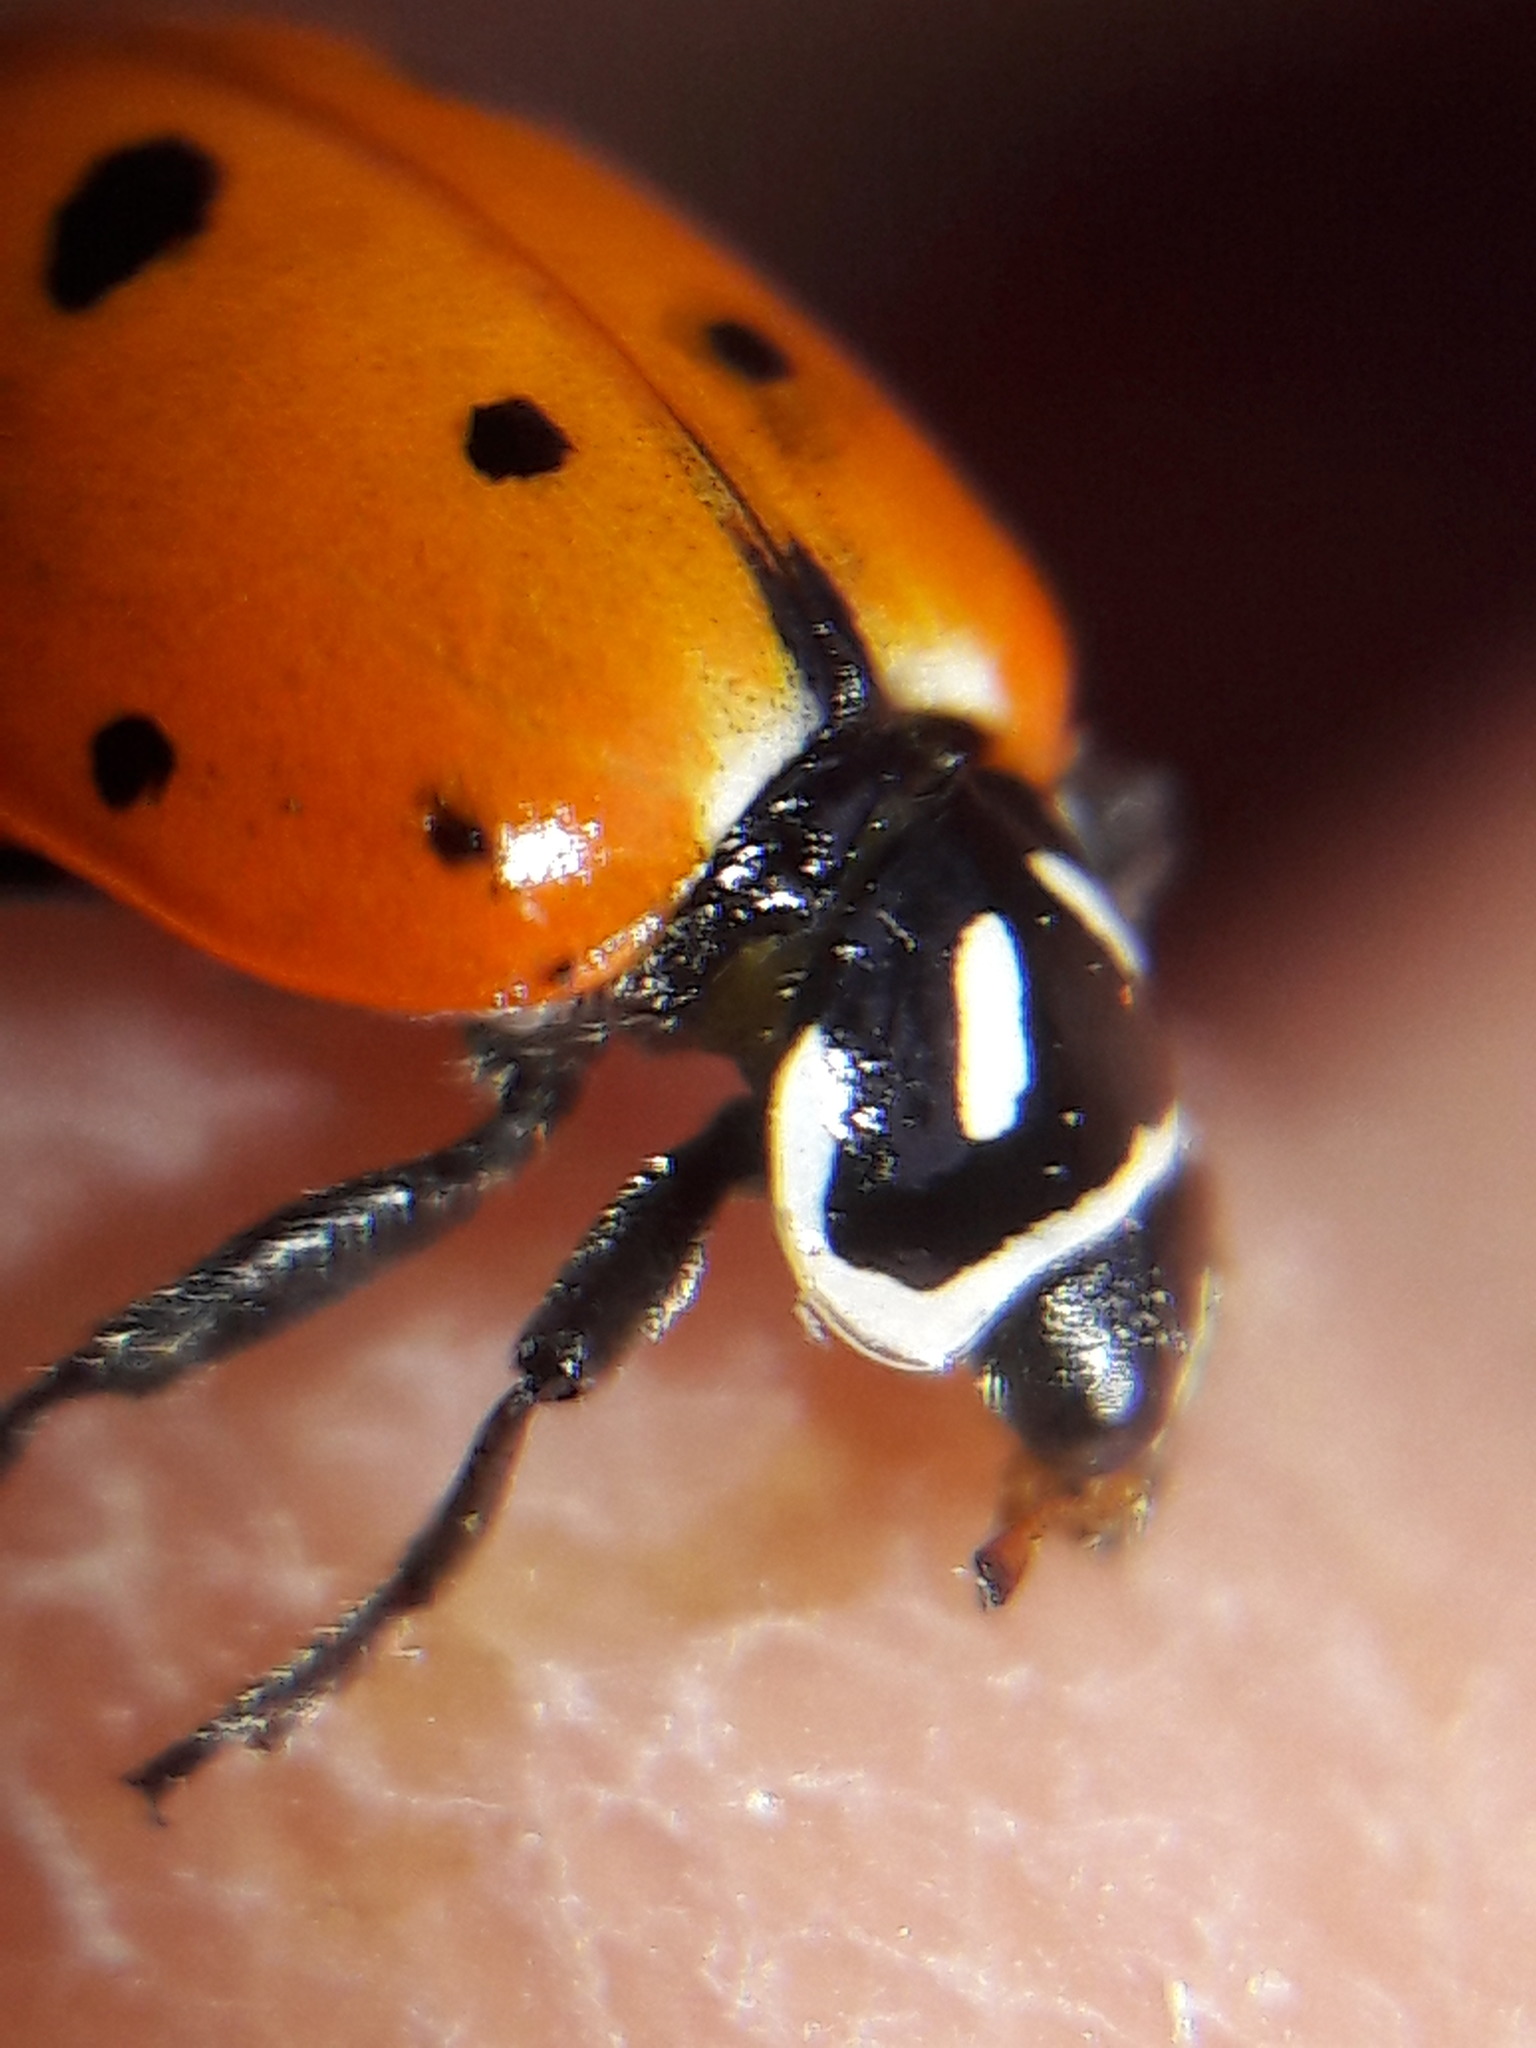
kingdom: Animalia
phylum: Arthropoda
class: Insecta
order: Coleoptera
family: Coccinellidae
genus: Hippodamia
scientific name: Hippodamia convergens
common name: Convergent lady beetle
